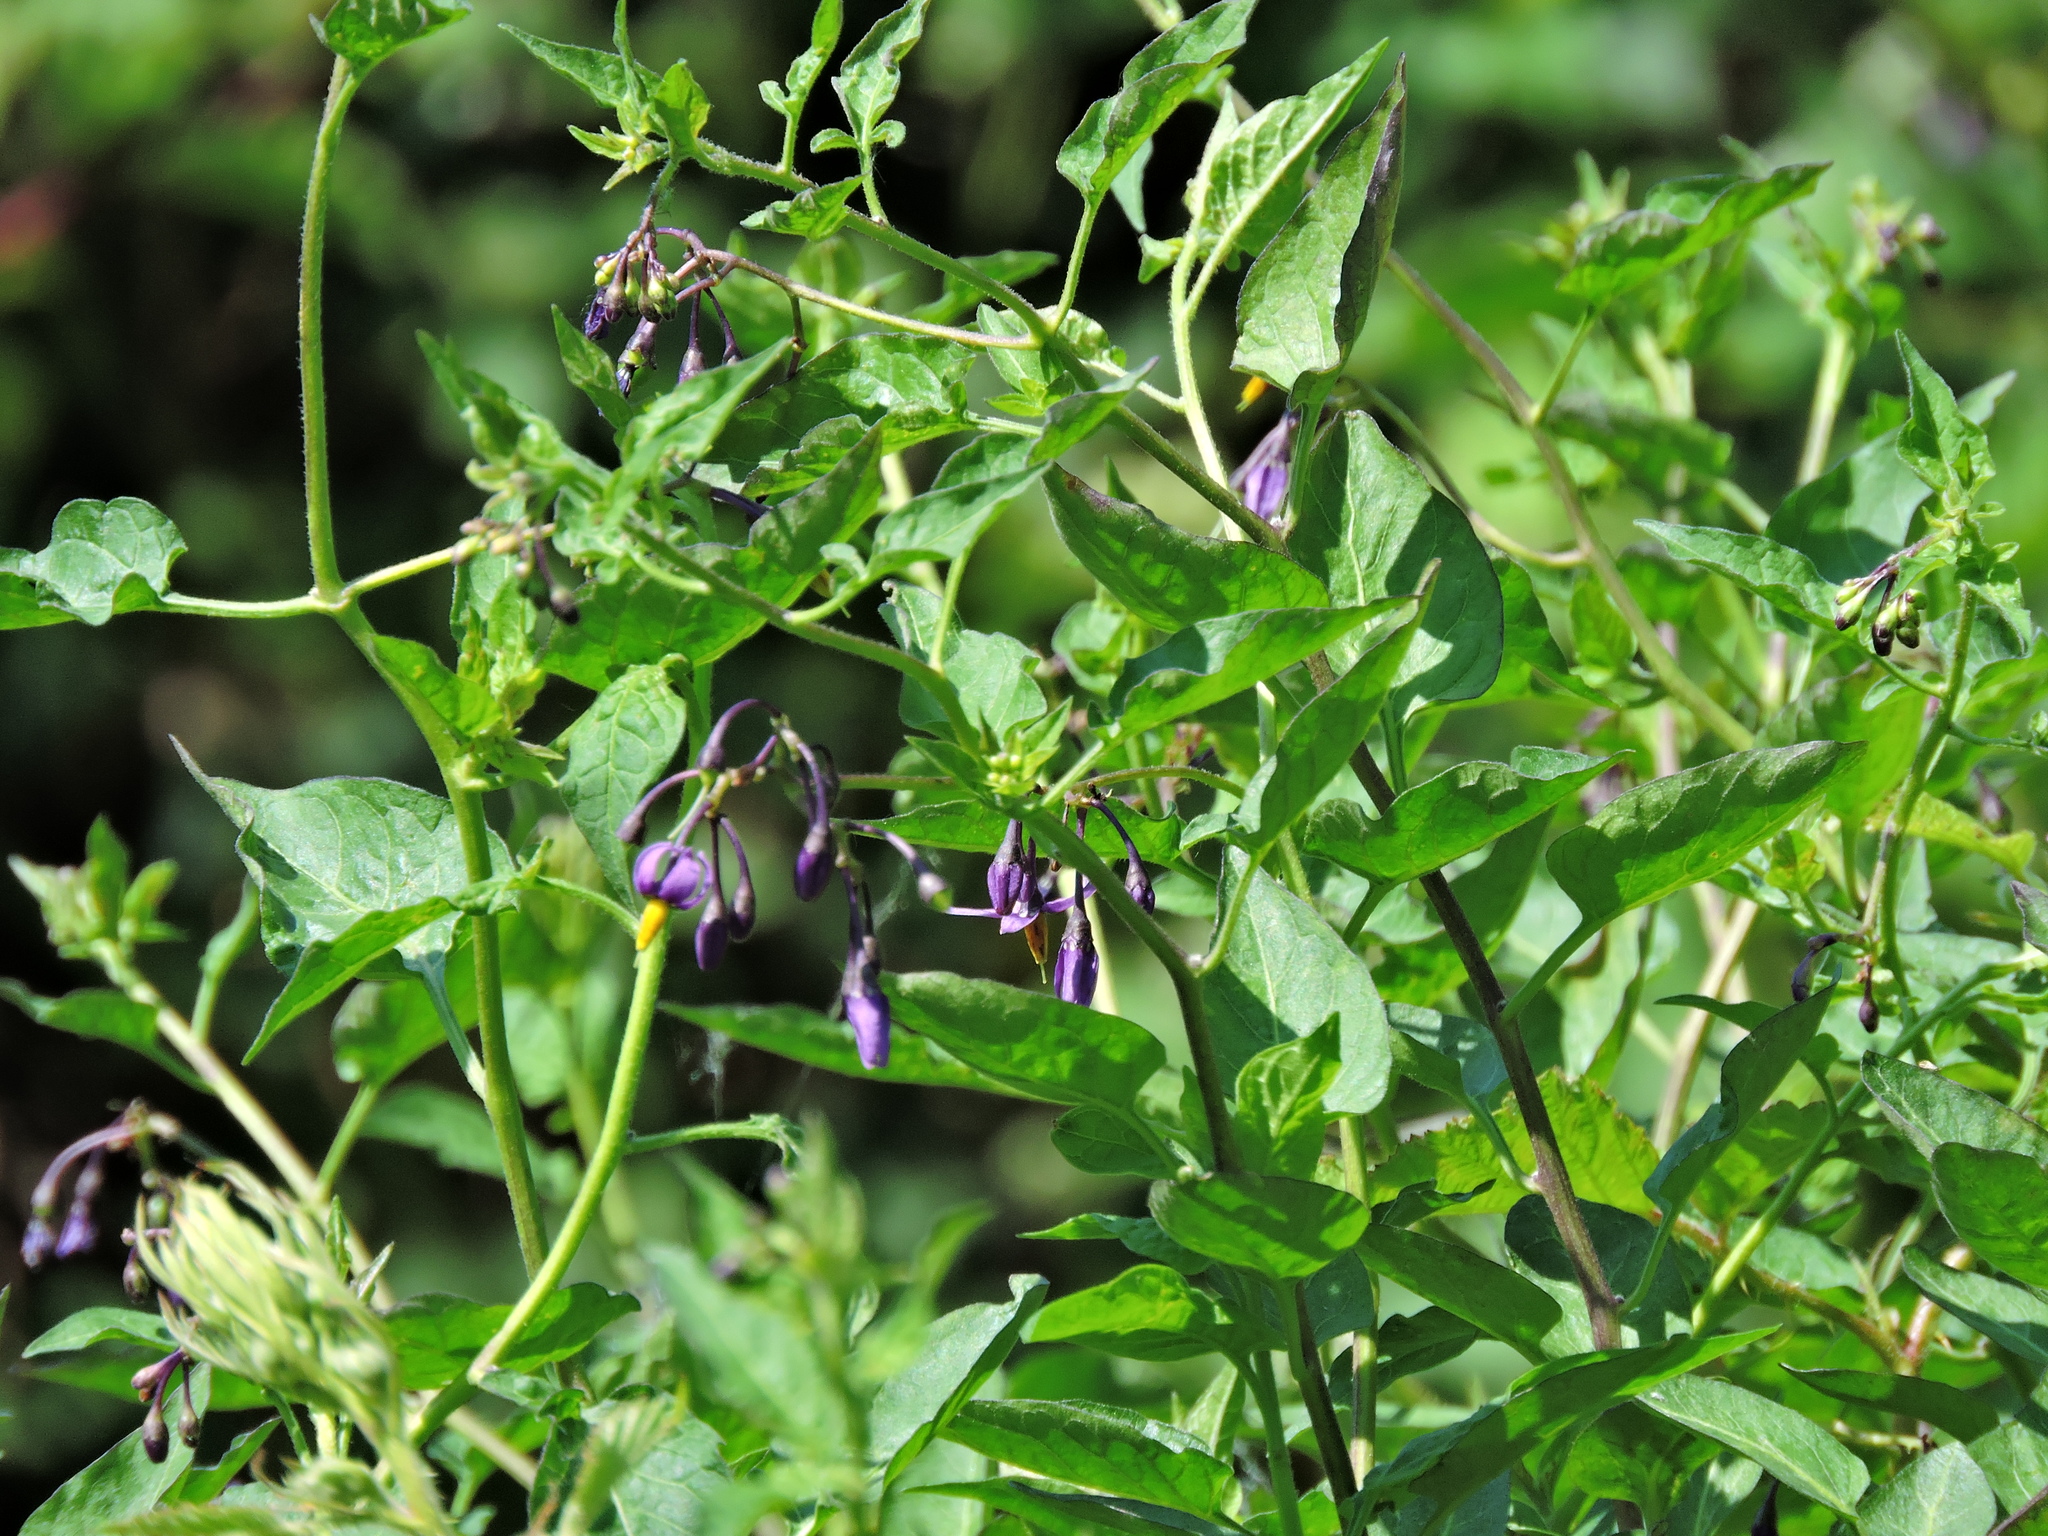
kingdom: Plantae
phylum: Tracheophyta
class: Magnoliopsida
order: Solanales
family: Solanaceae
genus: Solanum
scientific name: Solanum dulcamara
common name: Climbing nightshade
